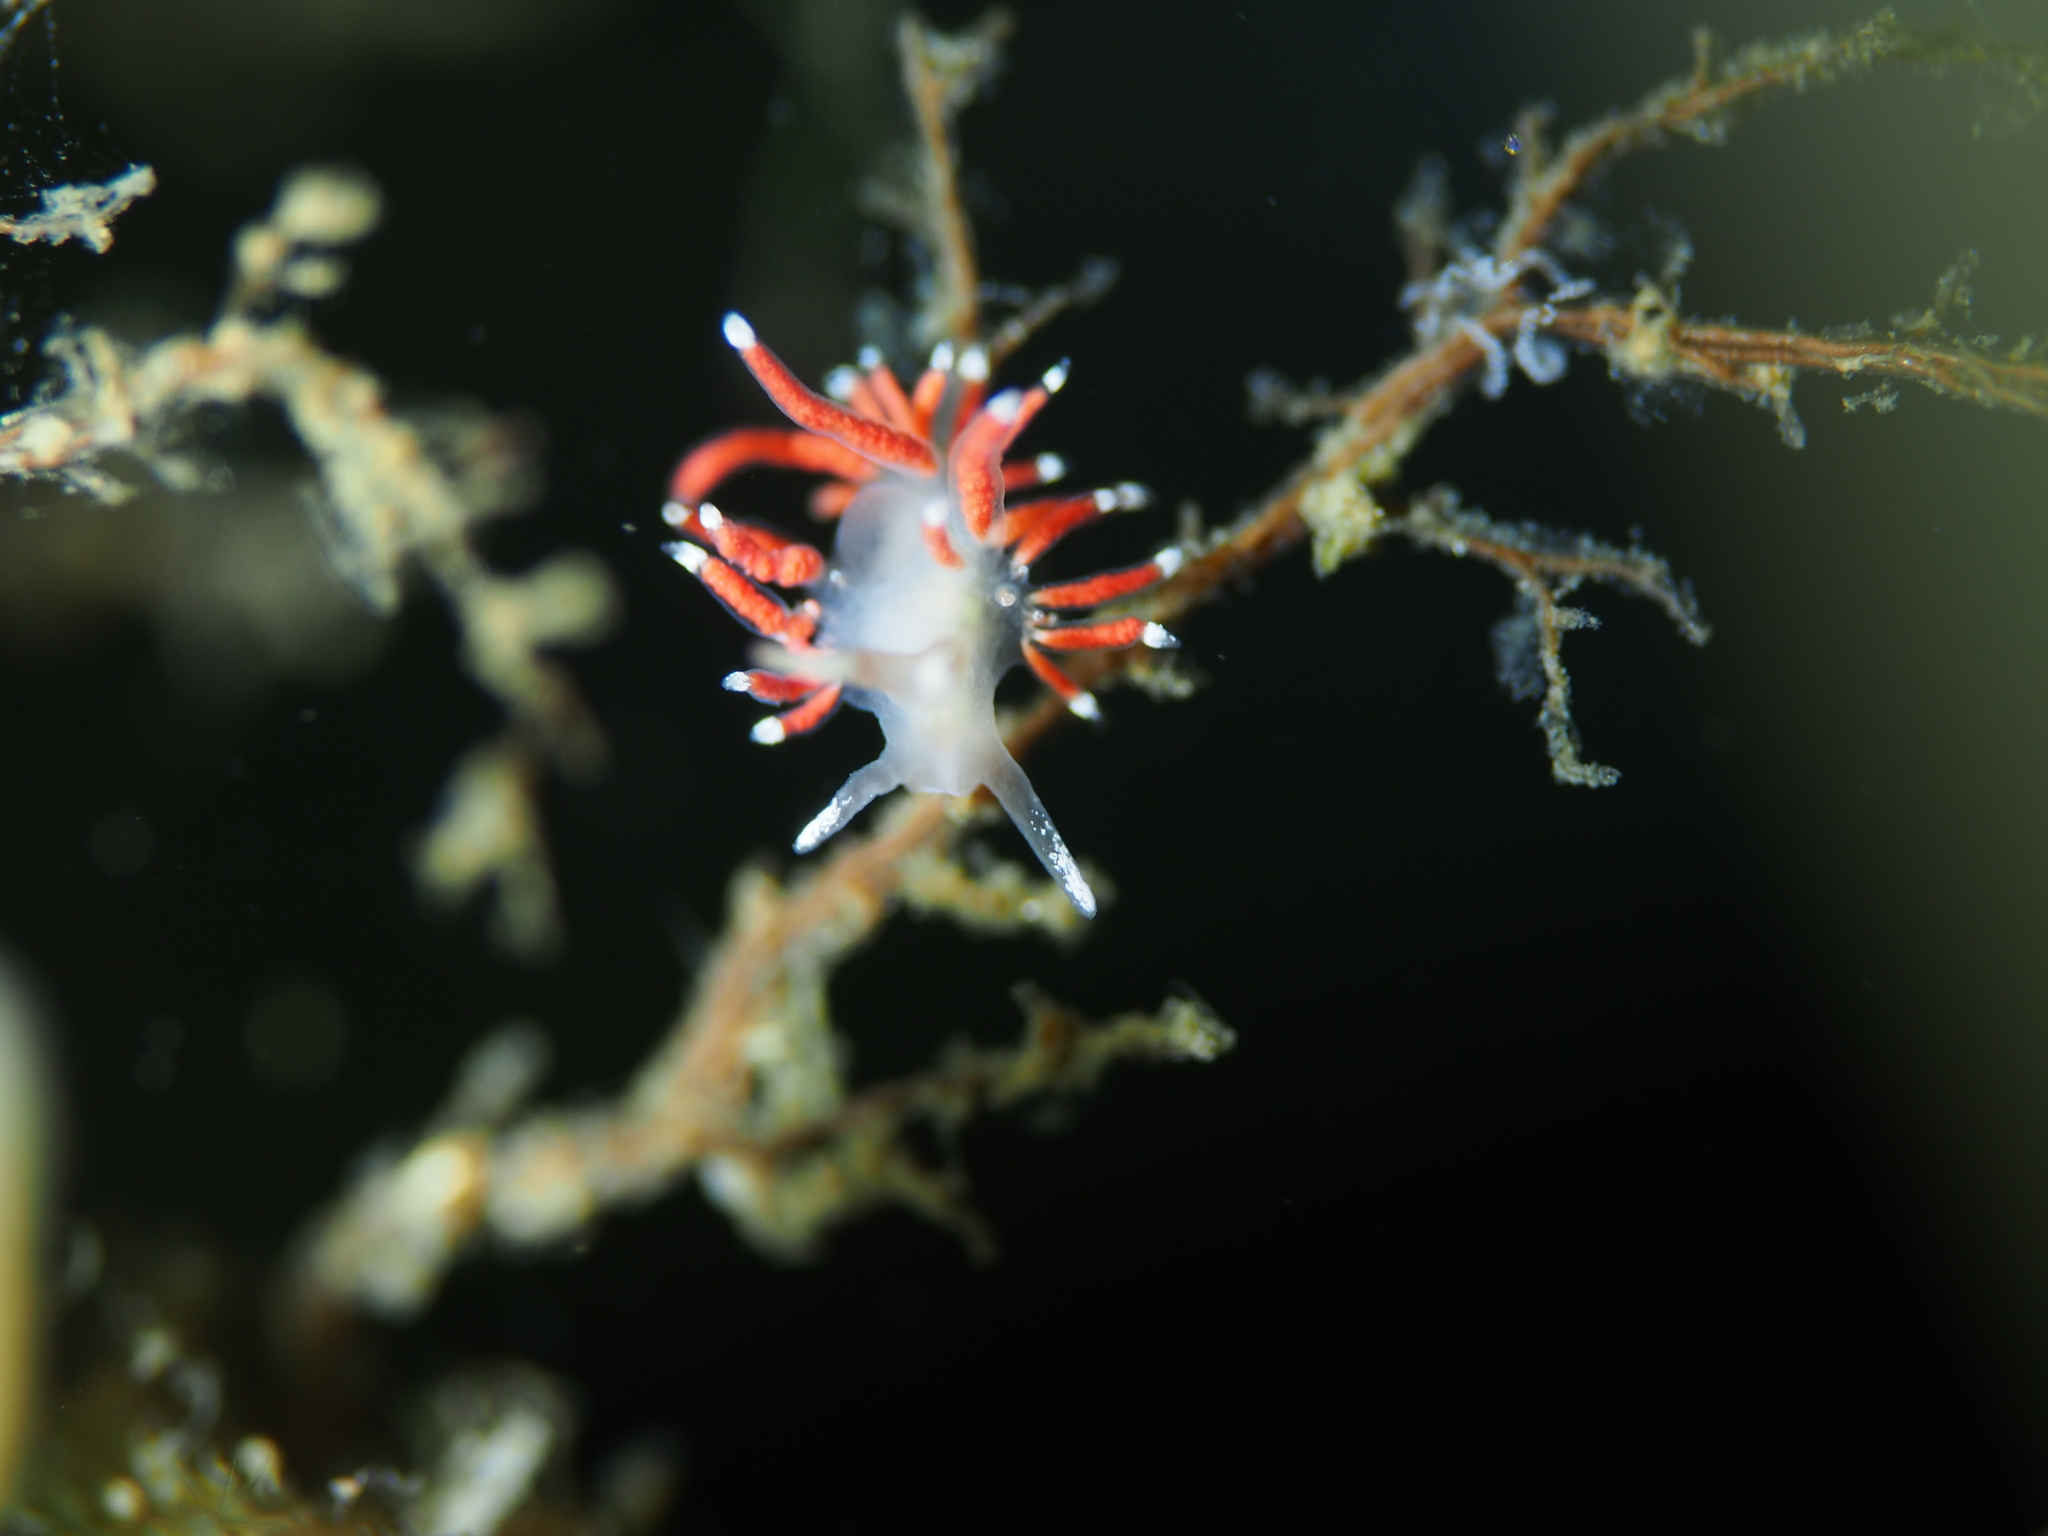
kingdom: Animalia
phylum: Mollusca
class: Gastropoda
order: Nudibranchia
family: Coryphellidae
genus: Coryphella
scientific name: Coryphella gracilis
